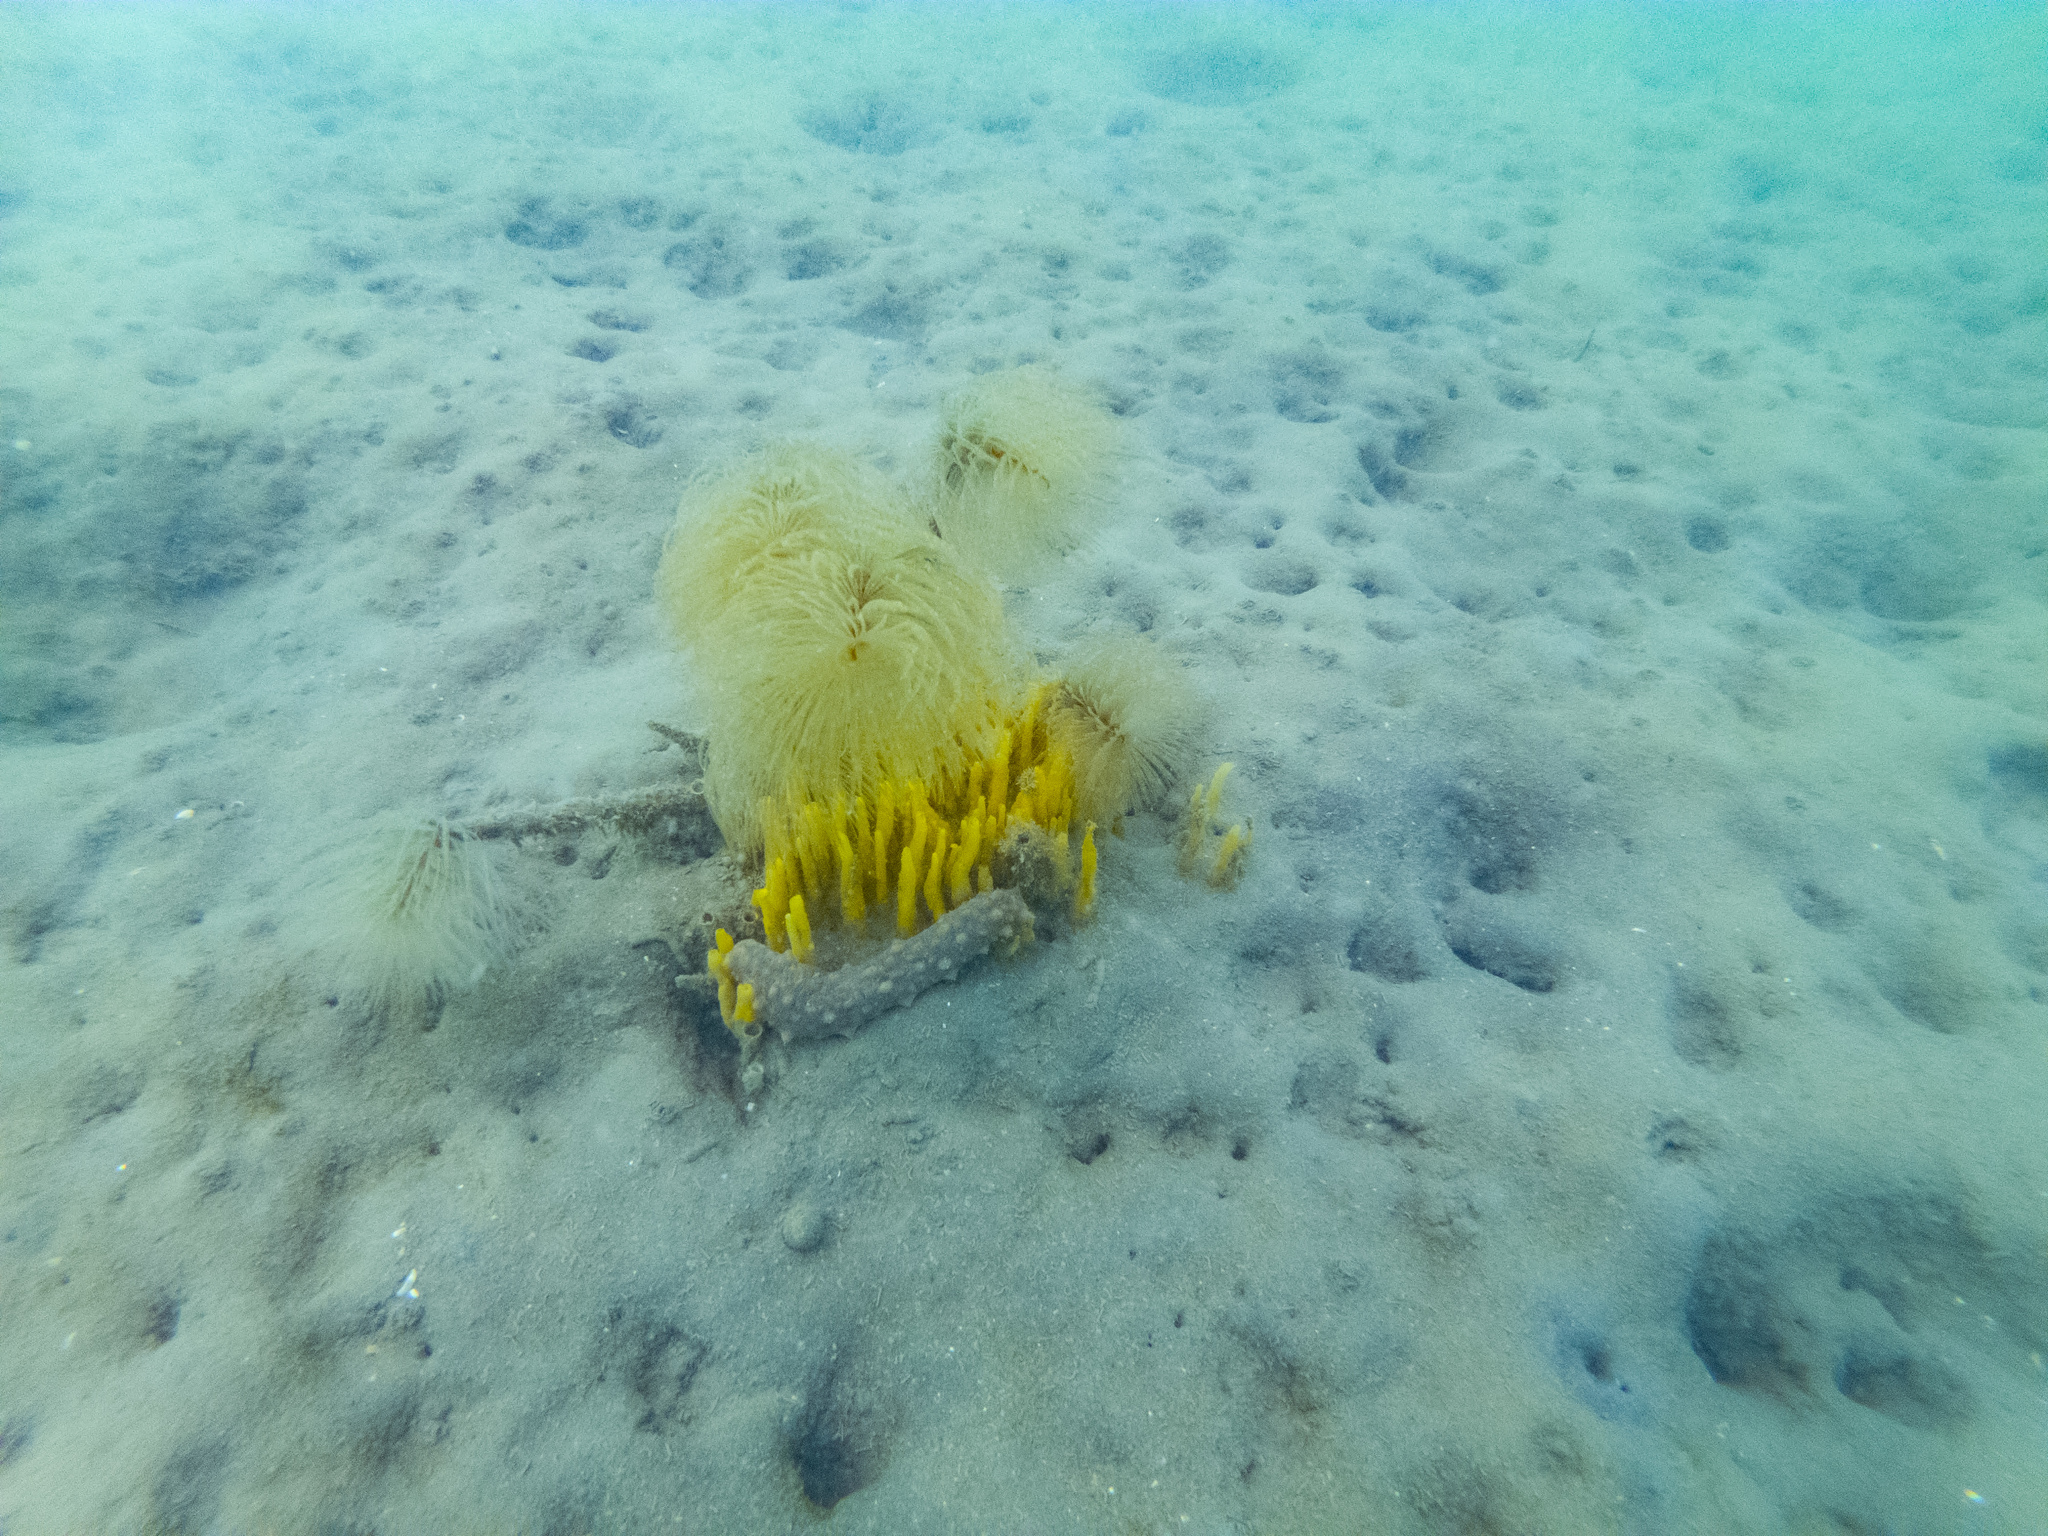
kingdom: Animalia
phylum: Annelida
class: Polychaeta
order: Sabellida
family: Sabellidae
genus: Sabella
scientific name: Sabella spallanzanii
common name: Feather duster worm
